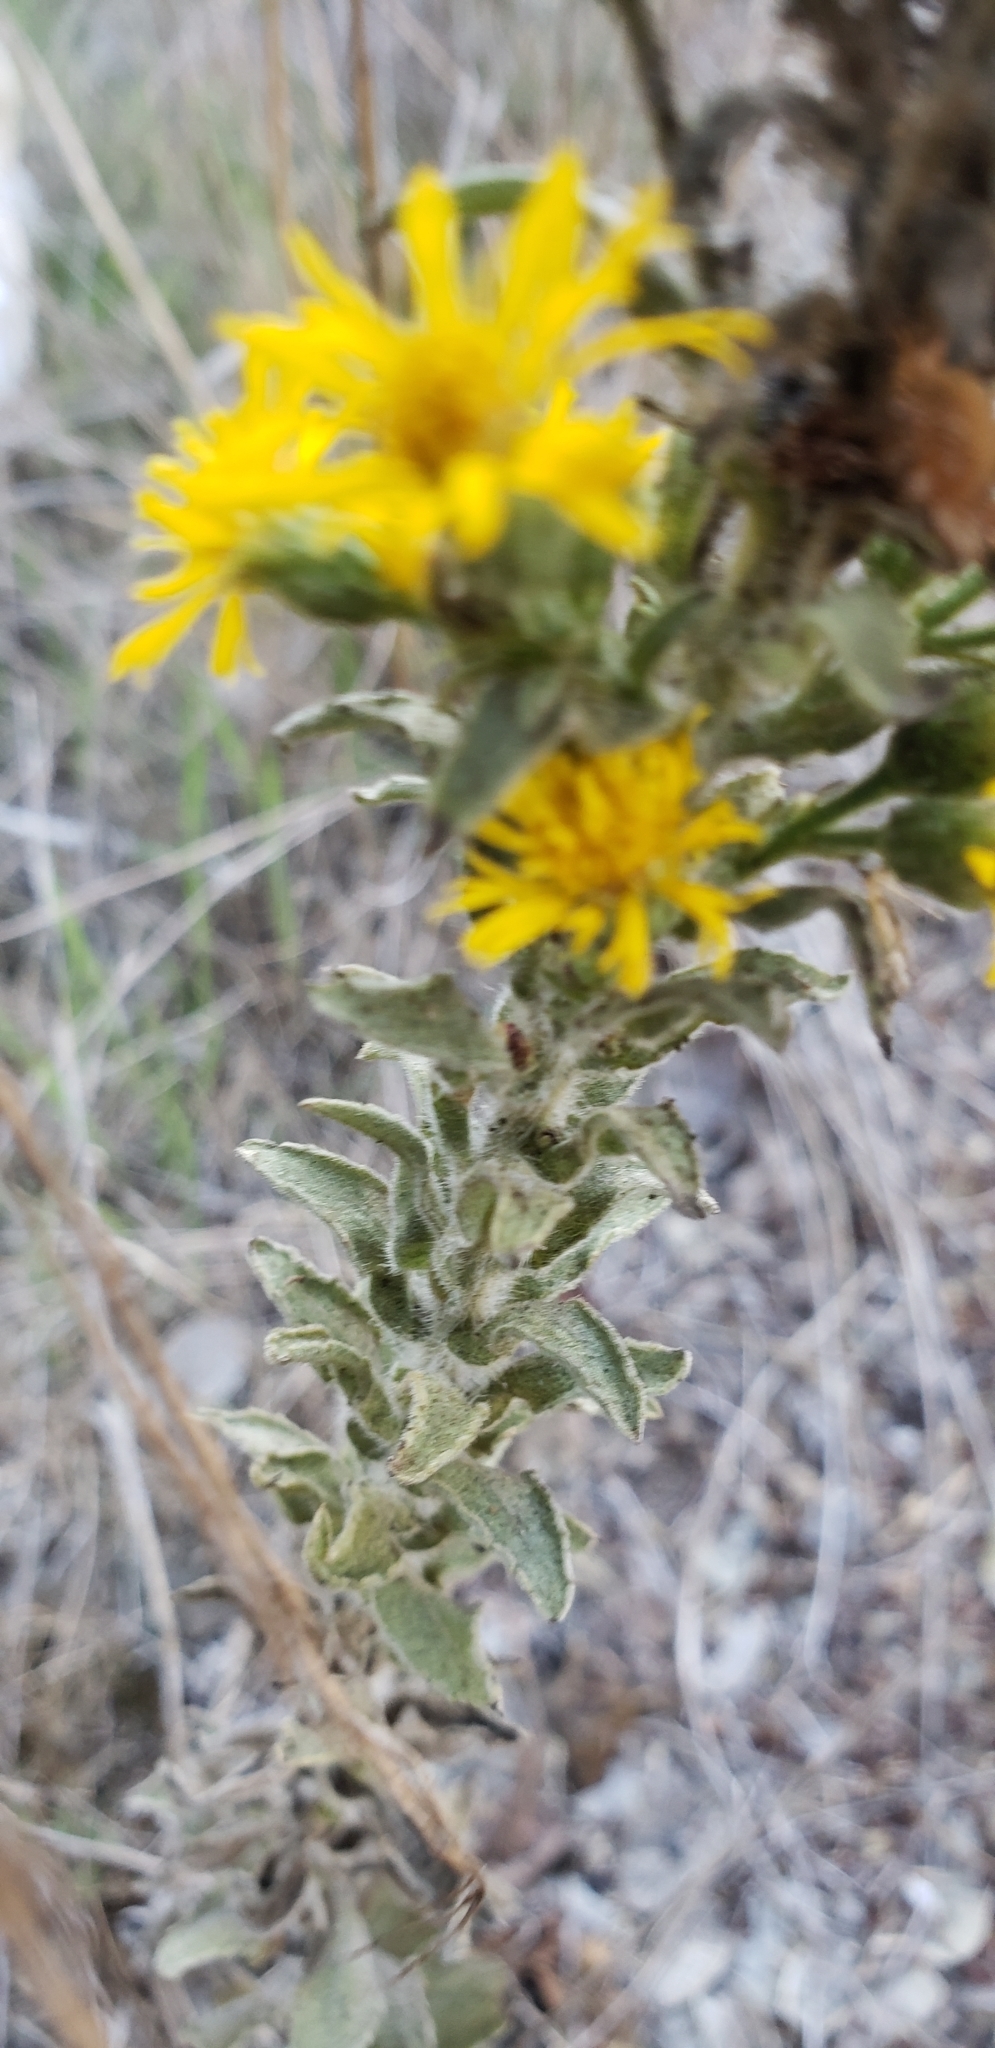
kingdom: Plantae
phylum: Tracheophyta
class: Magnoliopsida
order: Asterales
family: Asteraceae
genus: Heterotheca
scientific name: Heterotheca grandiflora
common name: Telegraphweed
